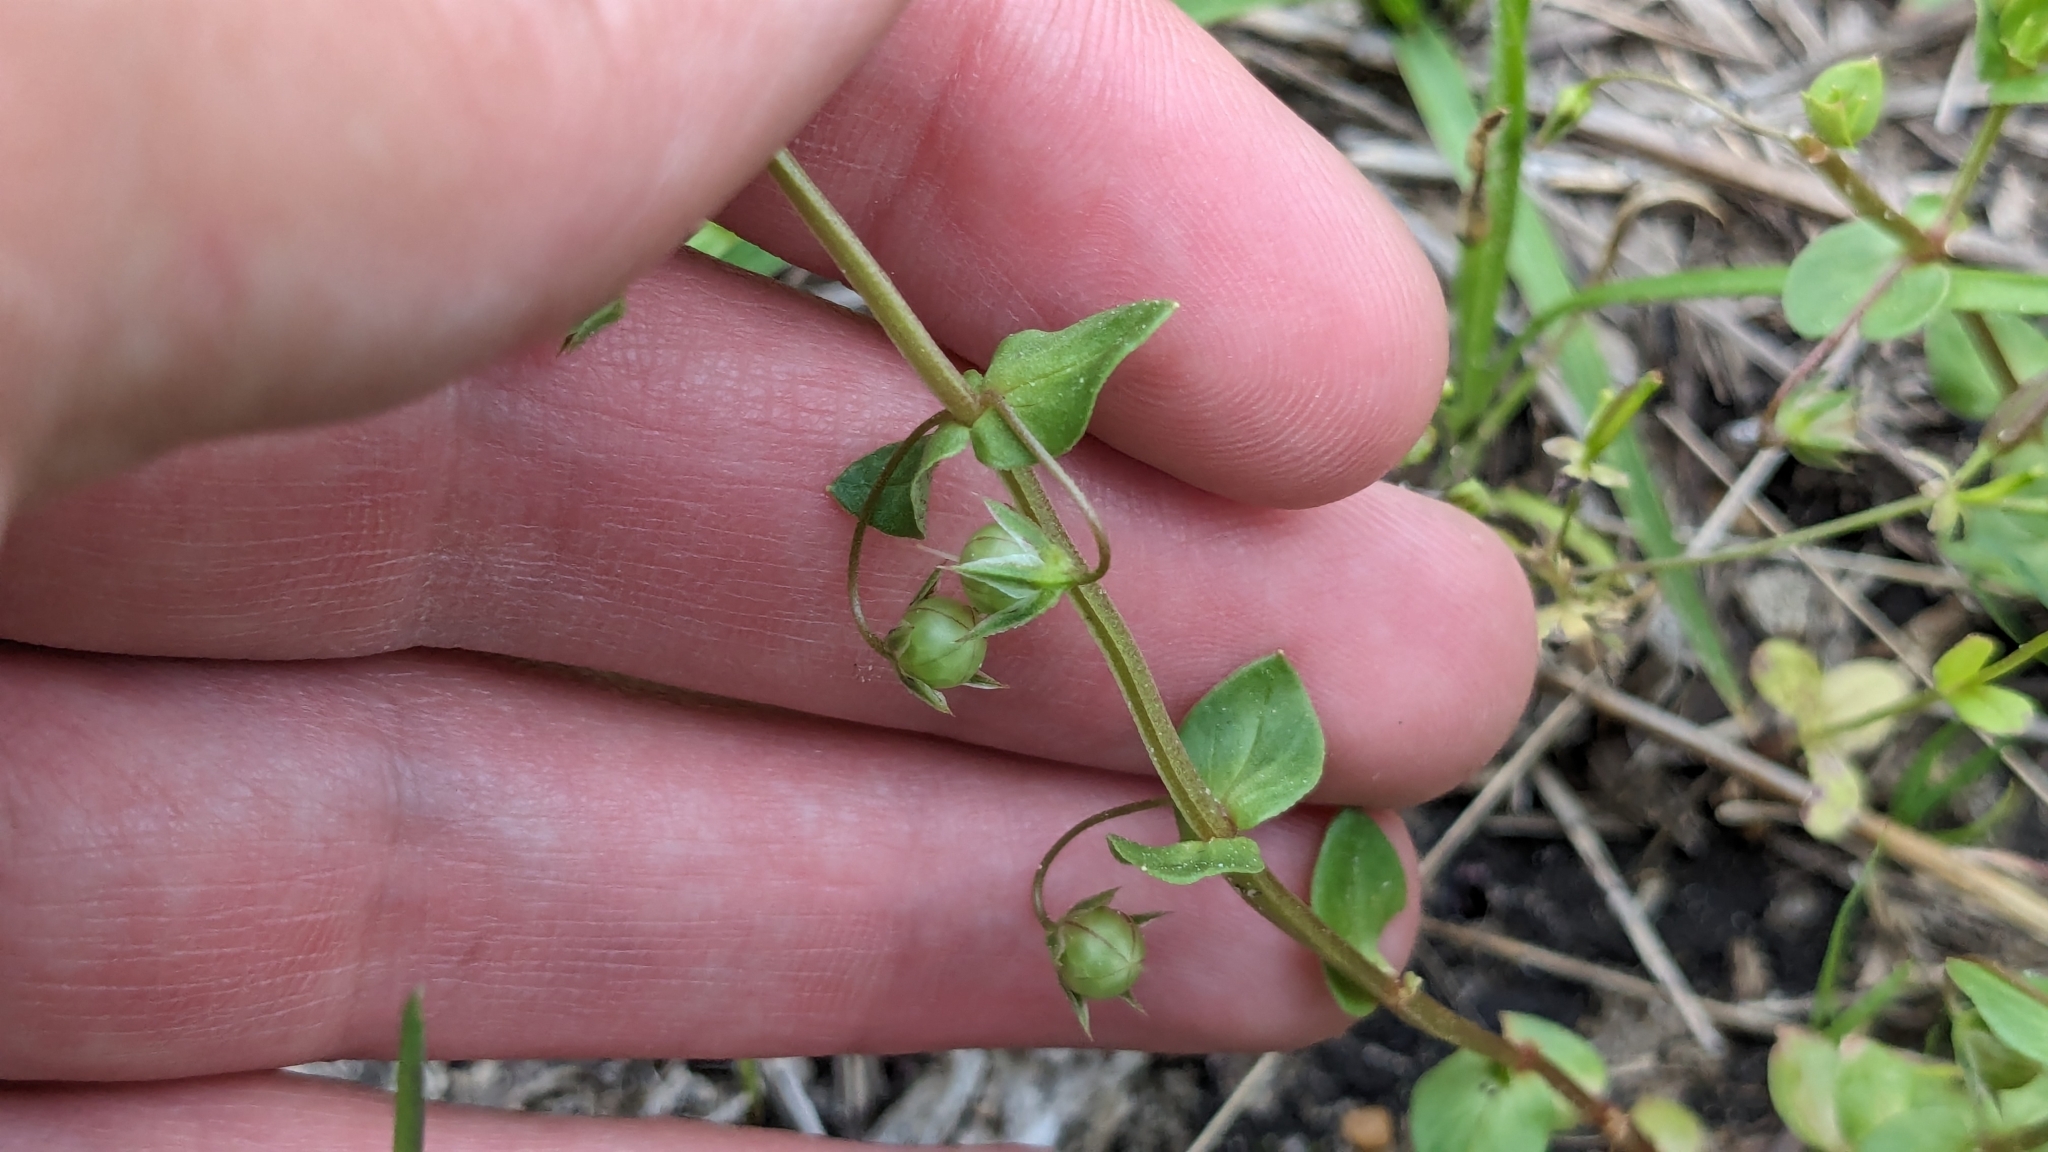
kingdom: Plantae
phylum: Tracheophyta
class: Magnoliopsida
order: Ericales
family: Primulaceae
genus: Lysimachia
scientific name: Lysimachia arvensis
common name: Scarlet pimpernel
